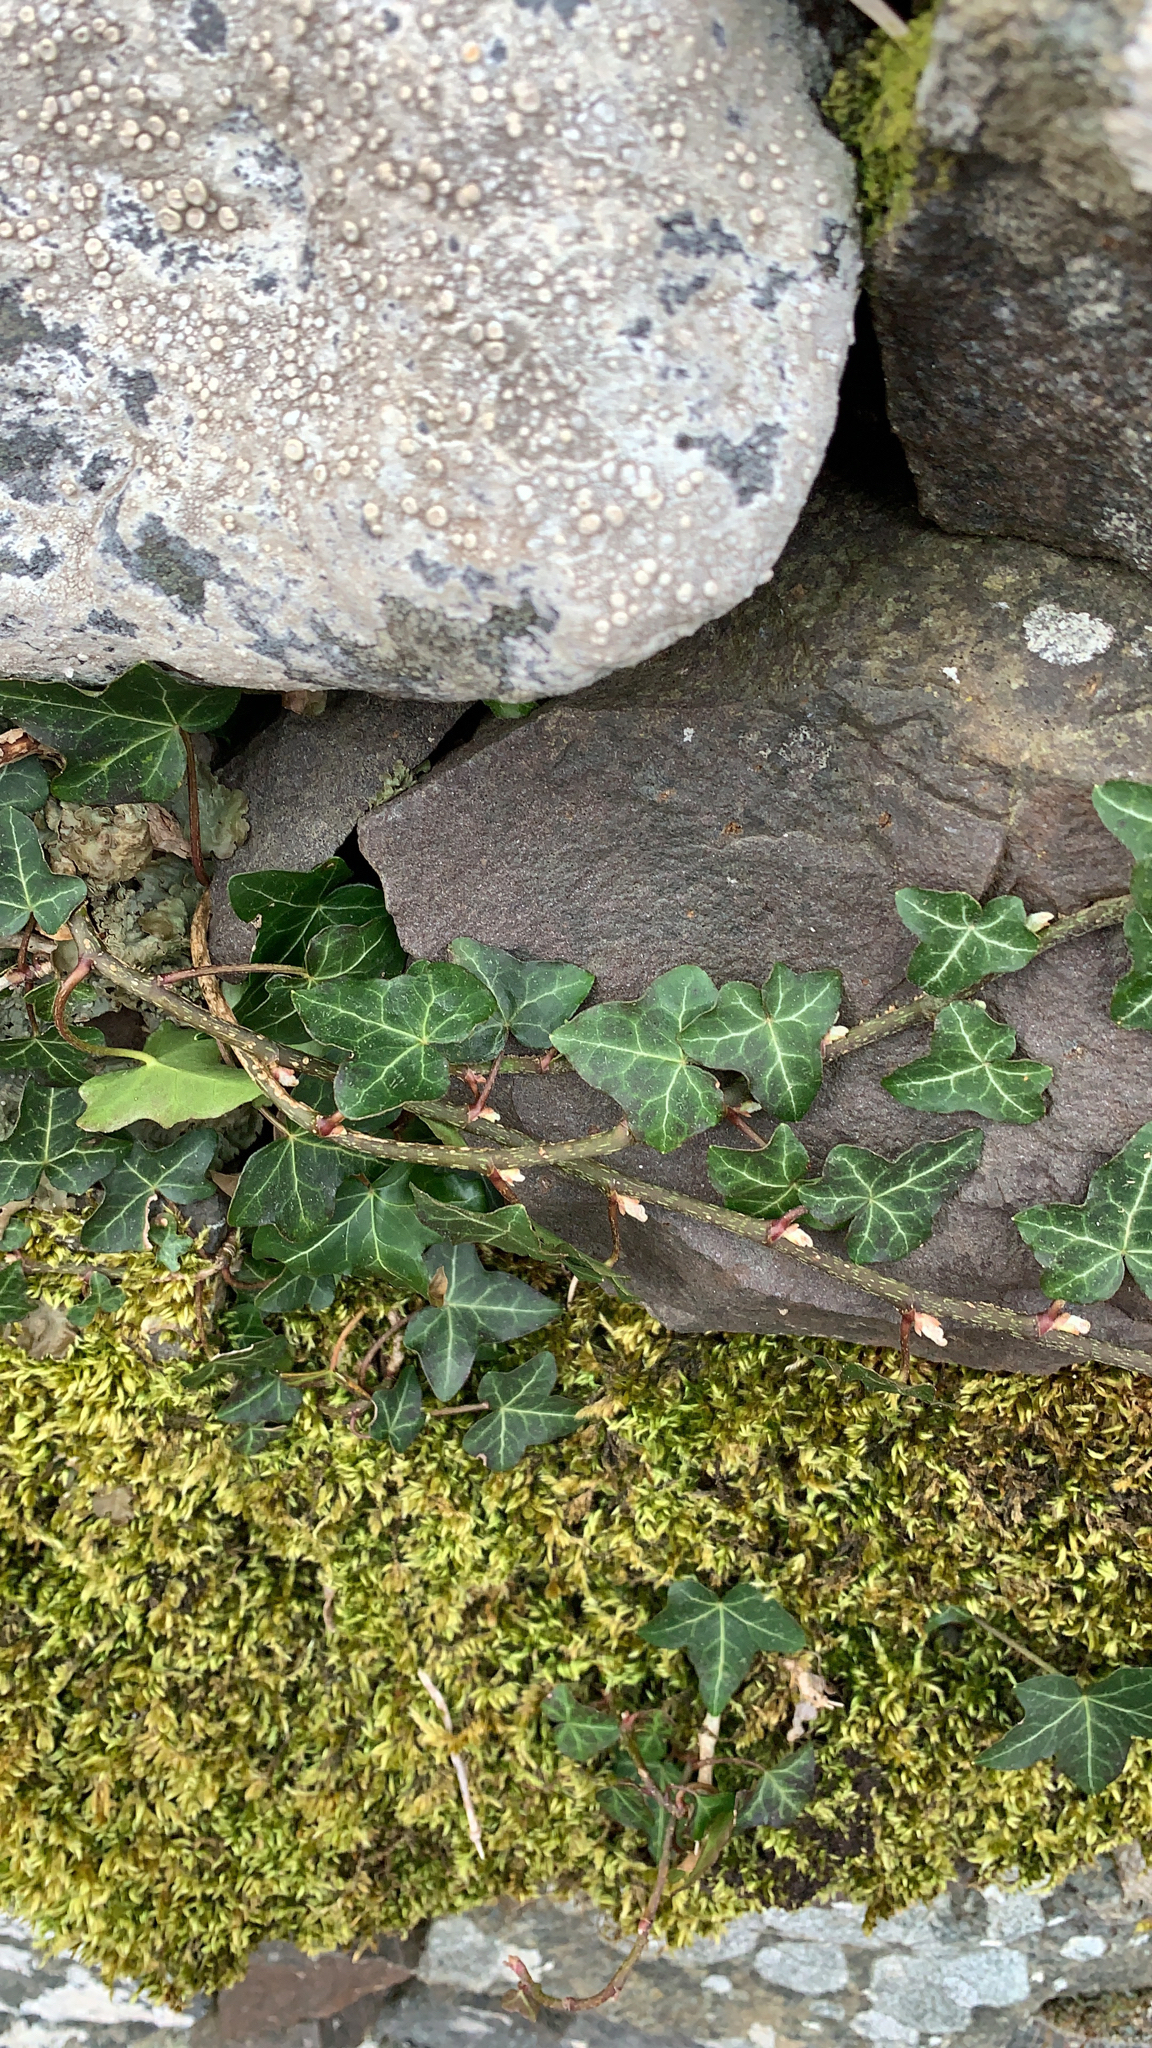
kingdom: Plantae
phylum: Tracheophyta
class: Magnoliopsida
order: Apiales
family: Araliaceae
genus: Hedera
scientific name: Hedera helix
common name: Ivy
